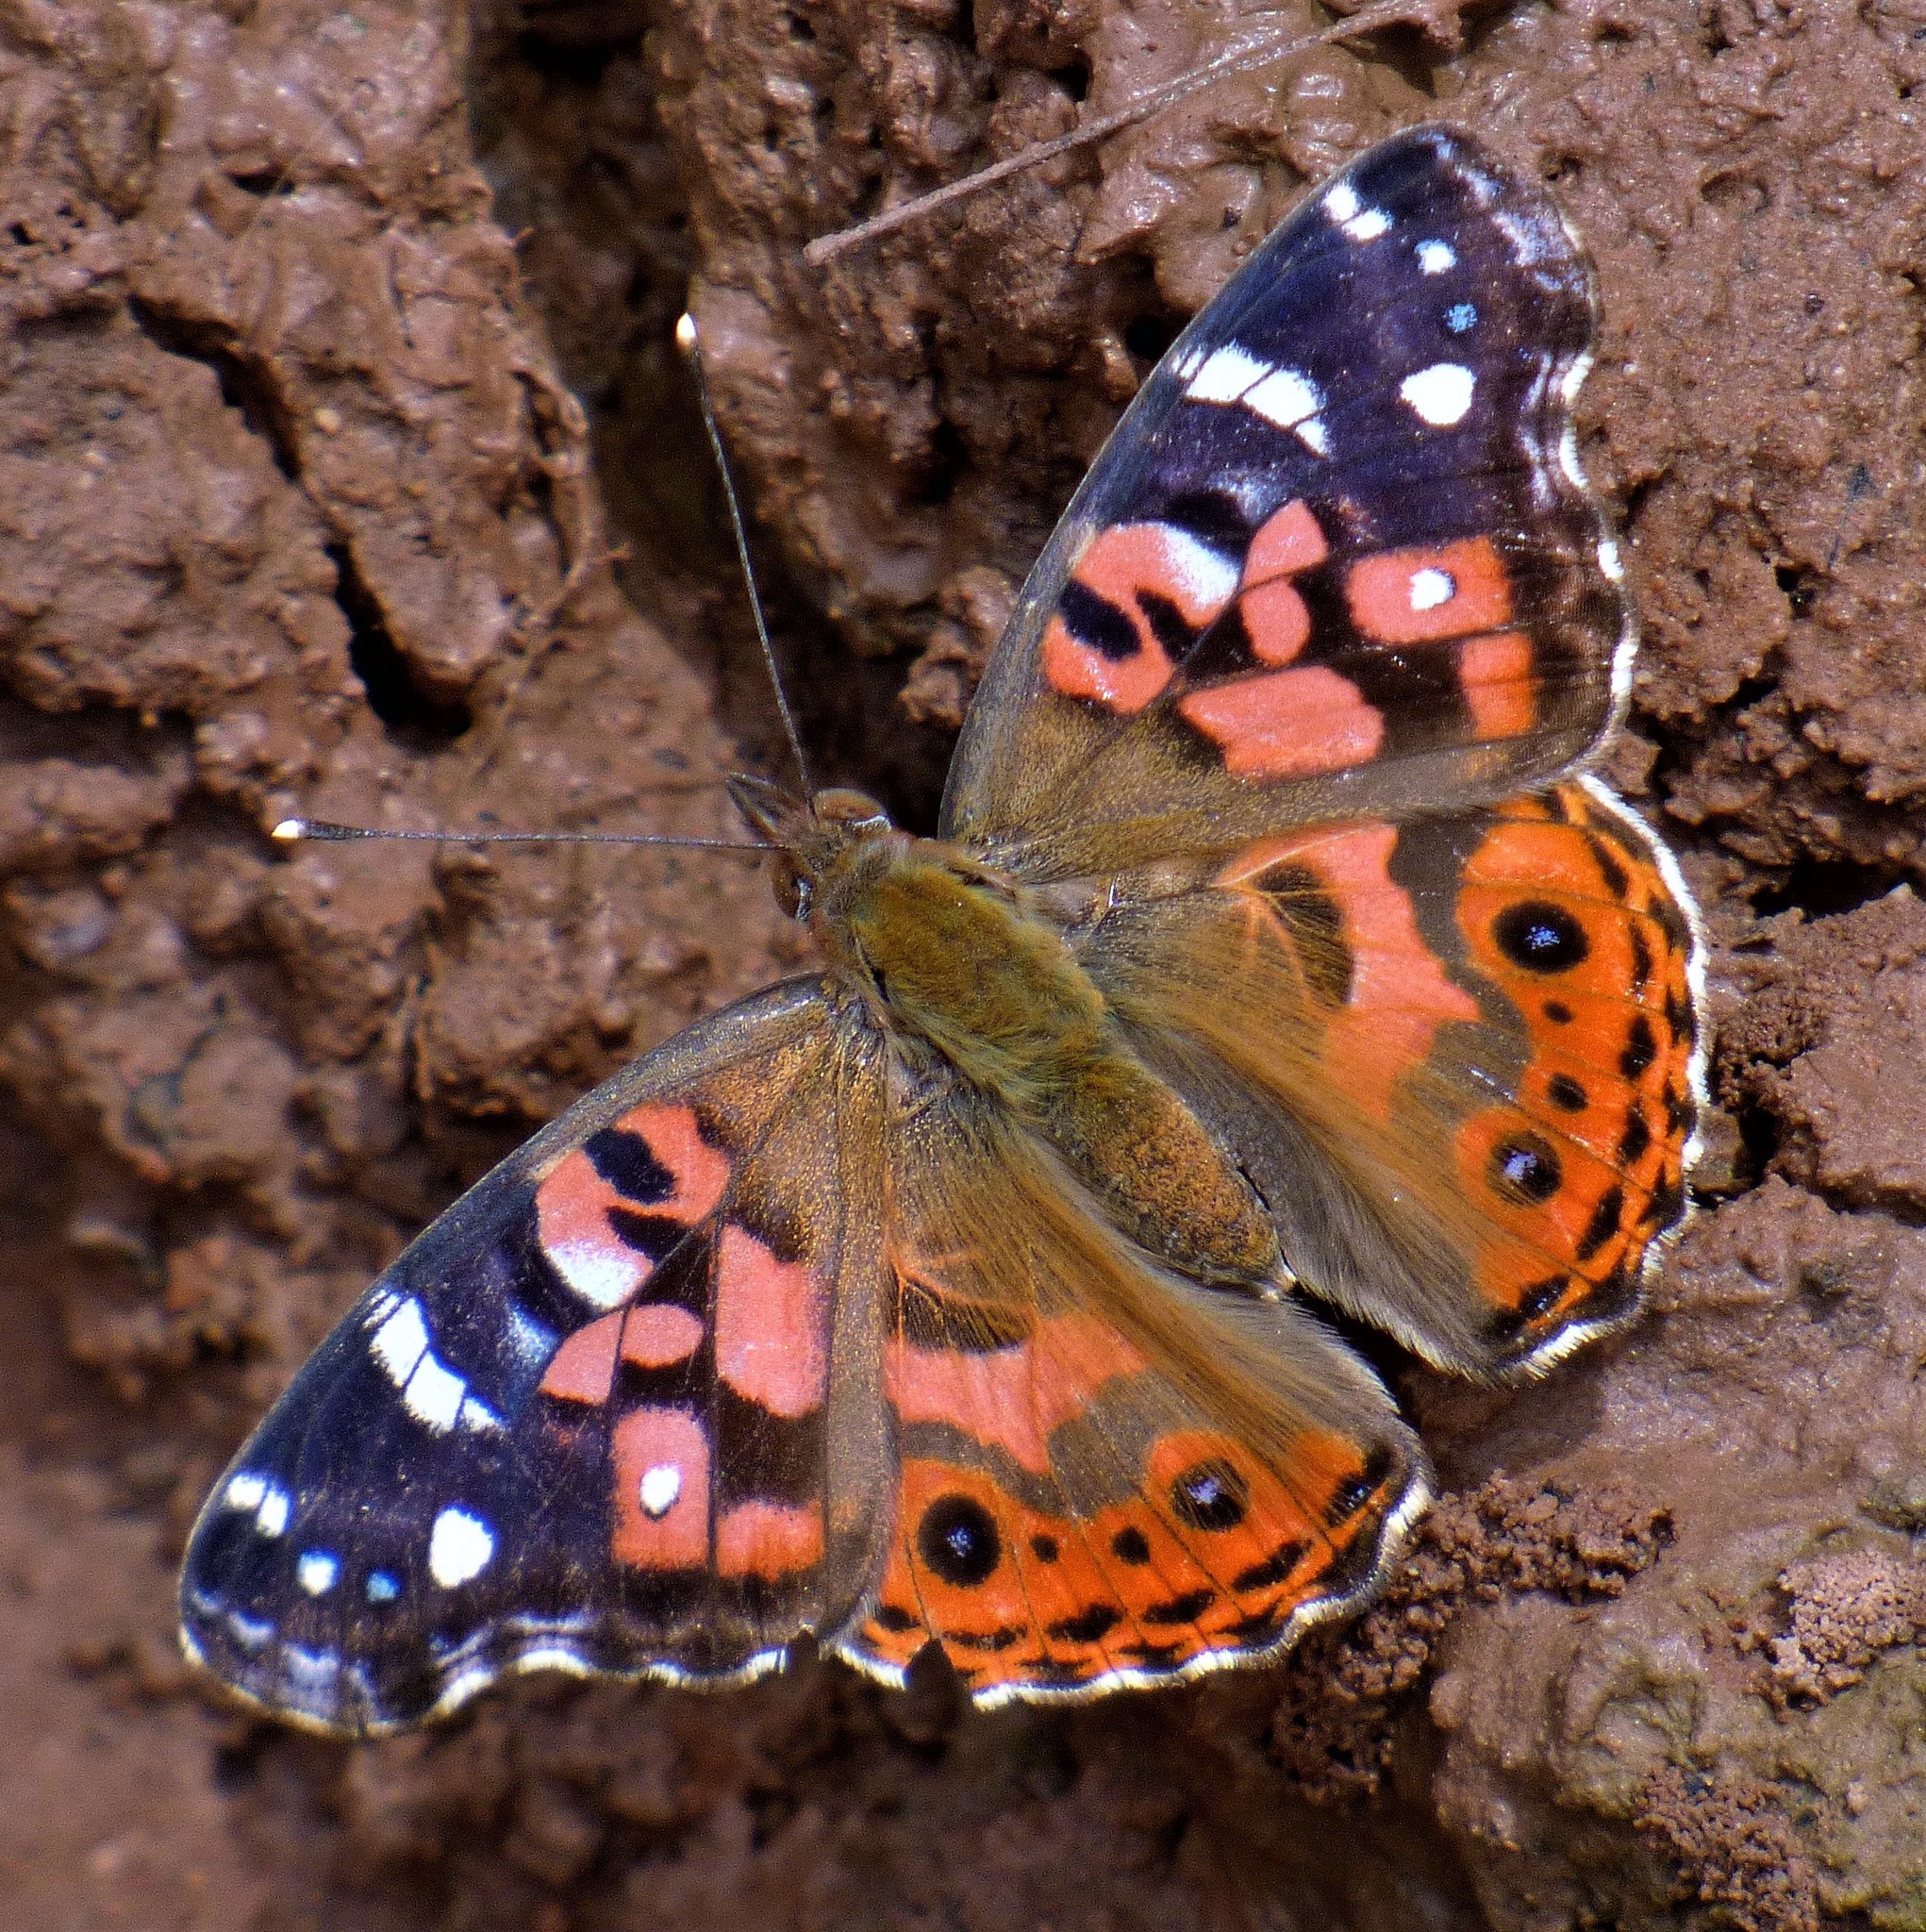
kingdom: Animalia
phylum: Arthropoda
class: Insecta
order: Lepidoptera
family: Nymphalidae
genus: Vanessa
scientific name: Vanessa braziliensis
